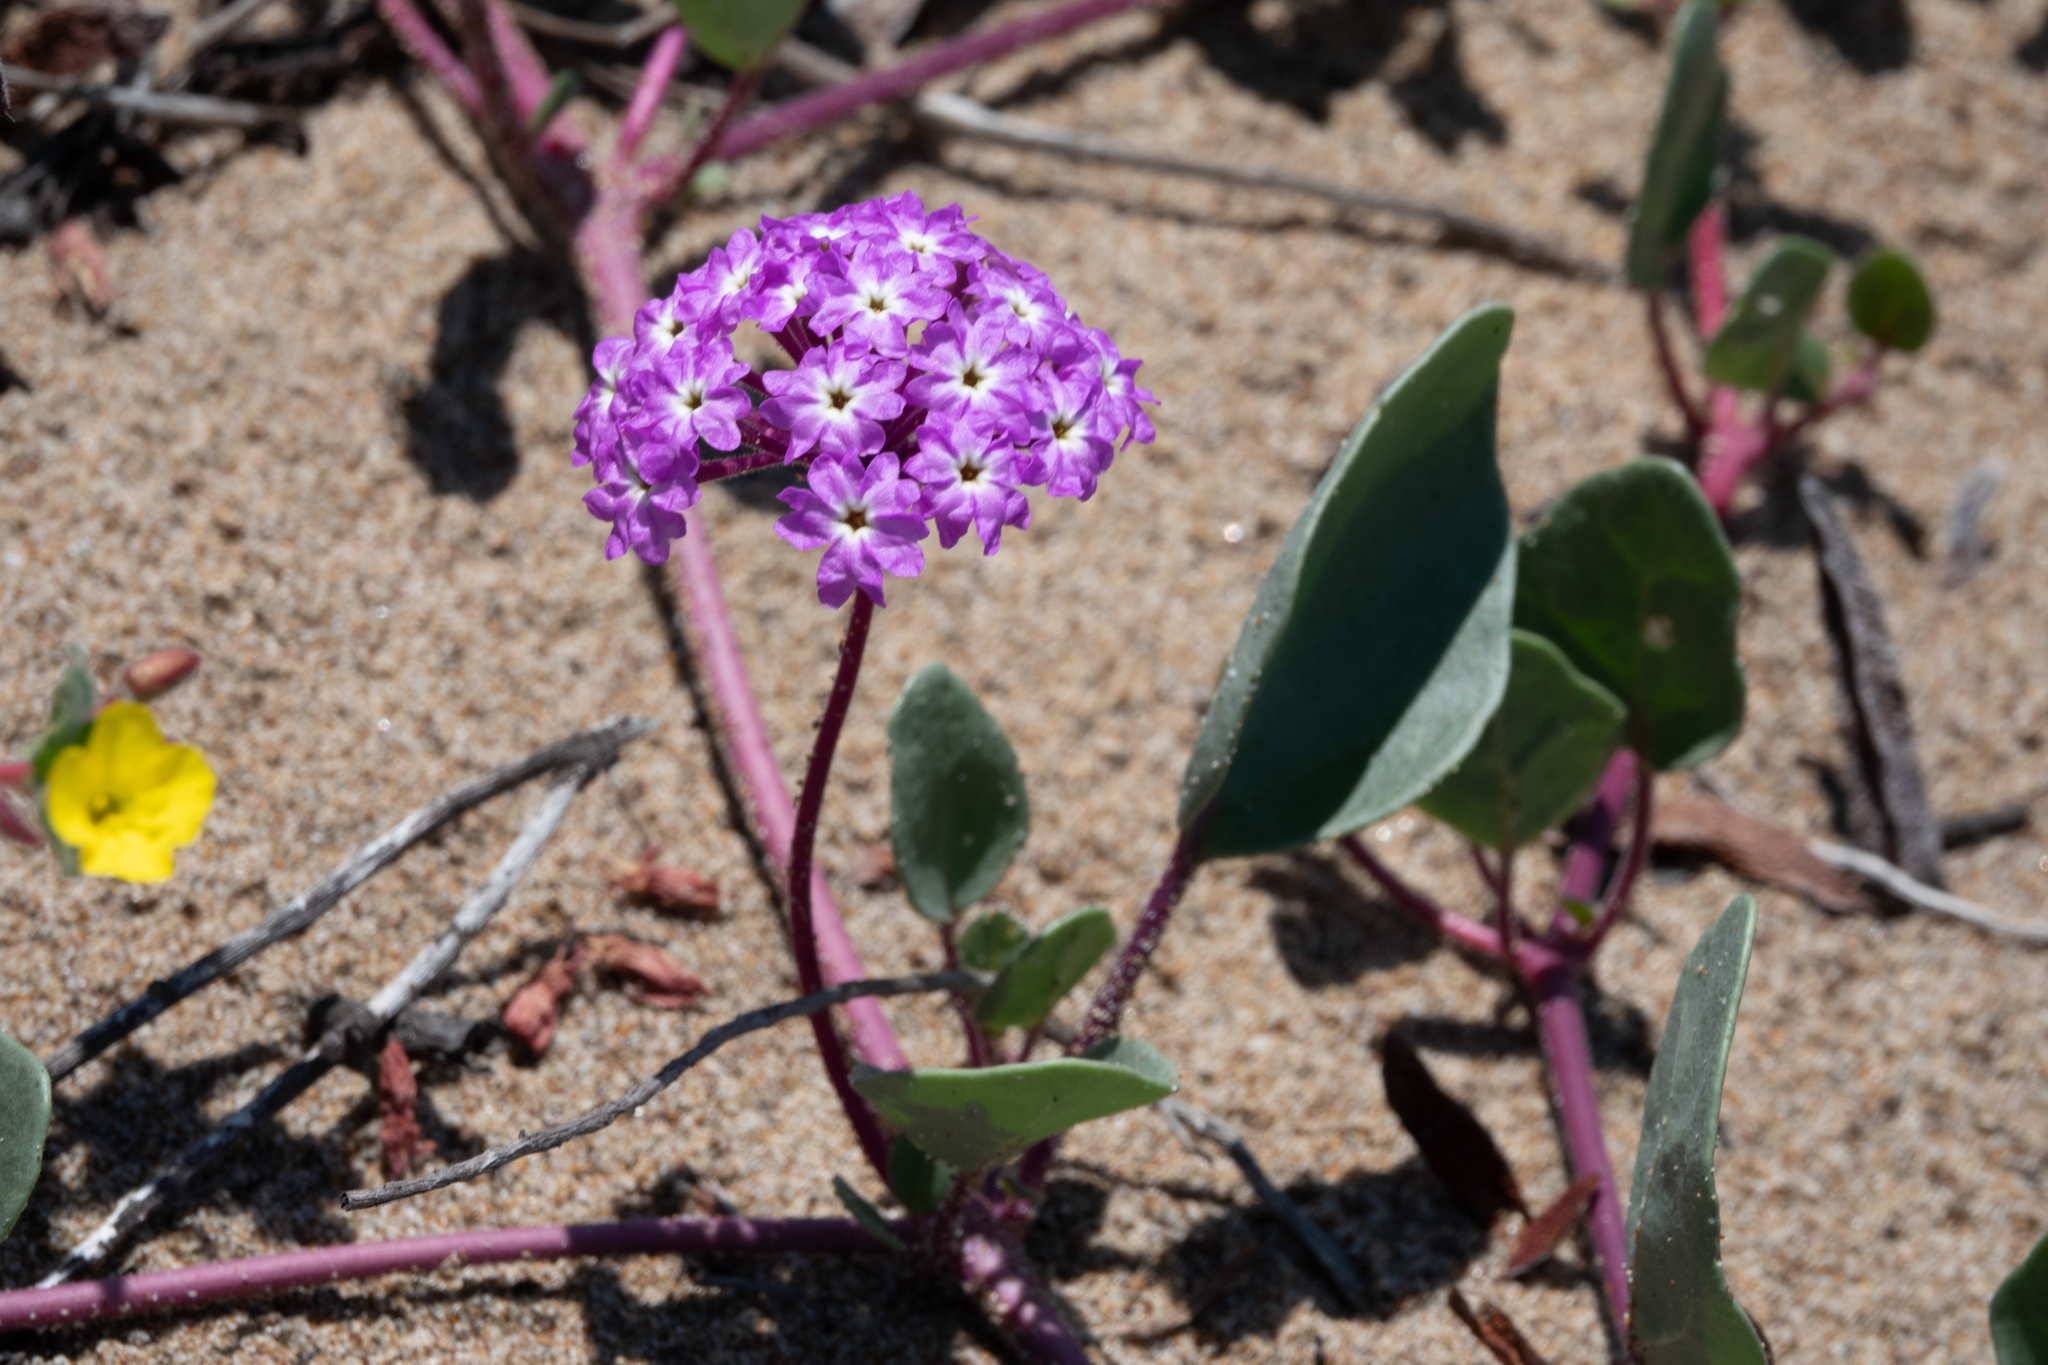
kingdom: Plantae
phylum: Tracheophyta
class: Magnoliopsida
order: Caryophyllales
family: Nyctaginaceae
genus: Abronia
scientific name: Abronia umbellata
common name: Sand-verbena
